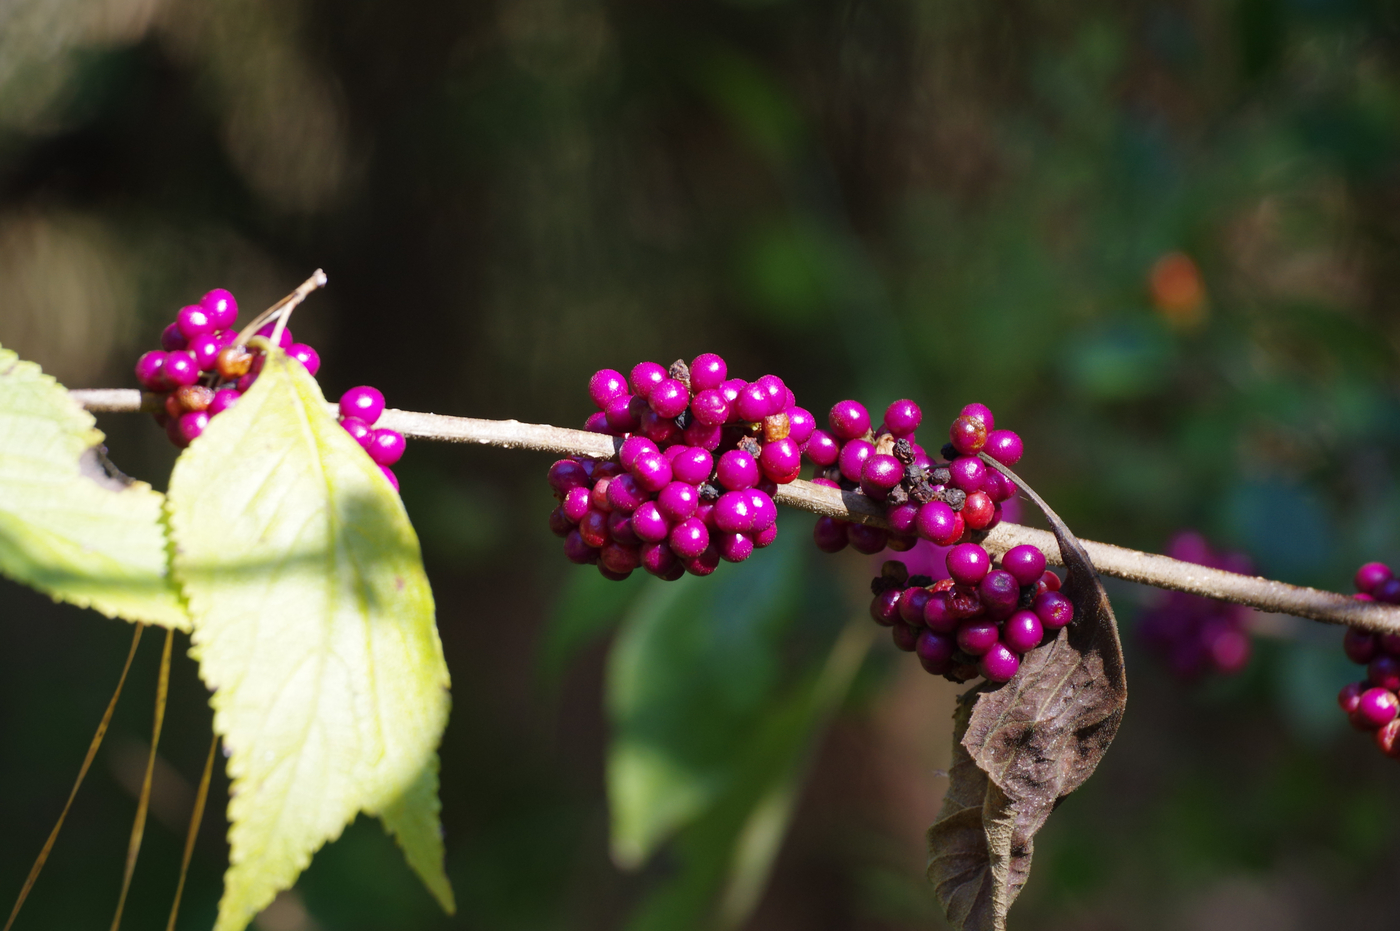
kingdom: Plantae
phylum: Tracheophyta
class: Magnoliopsida
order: Lamiales
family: Lamiaceae
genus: Callicarpa
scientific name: Callicarpa americana
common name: American beautyberry
